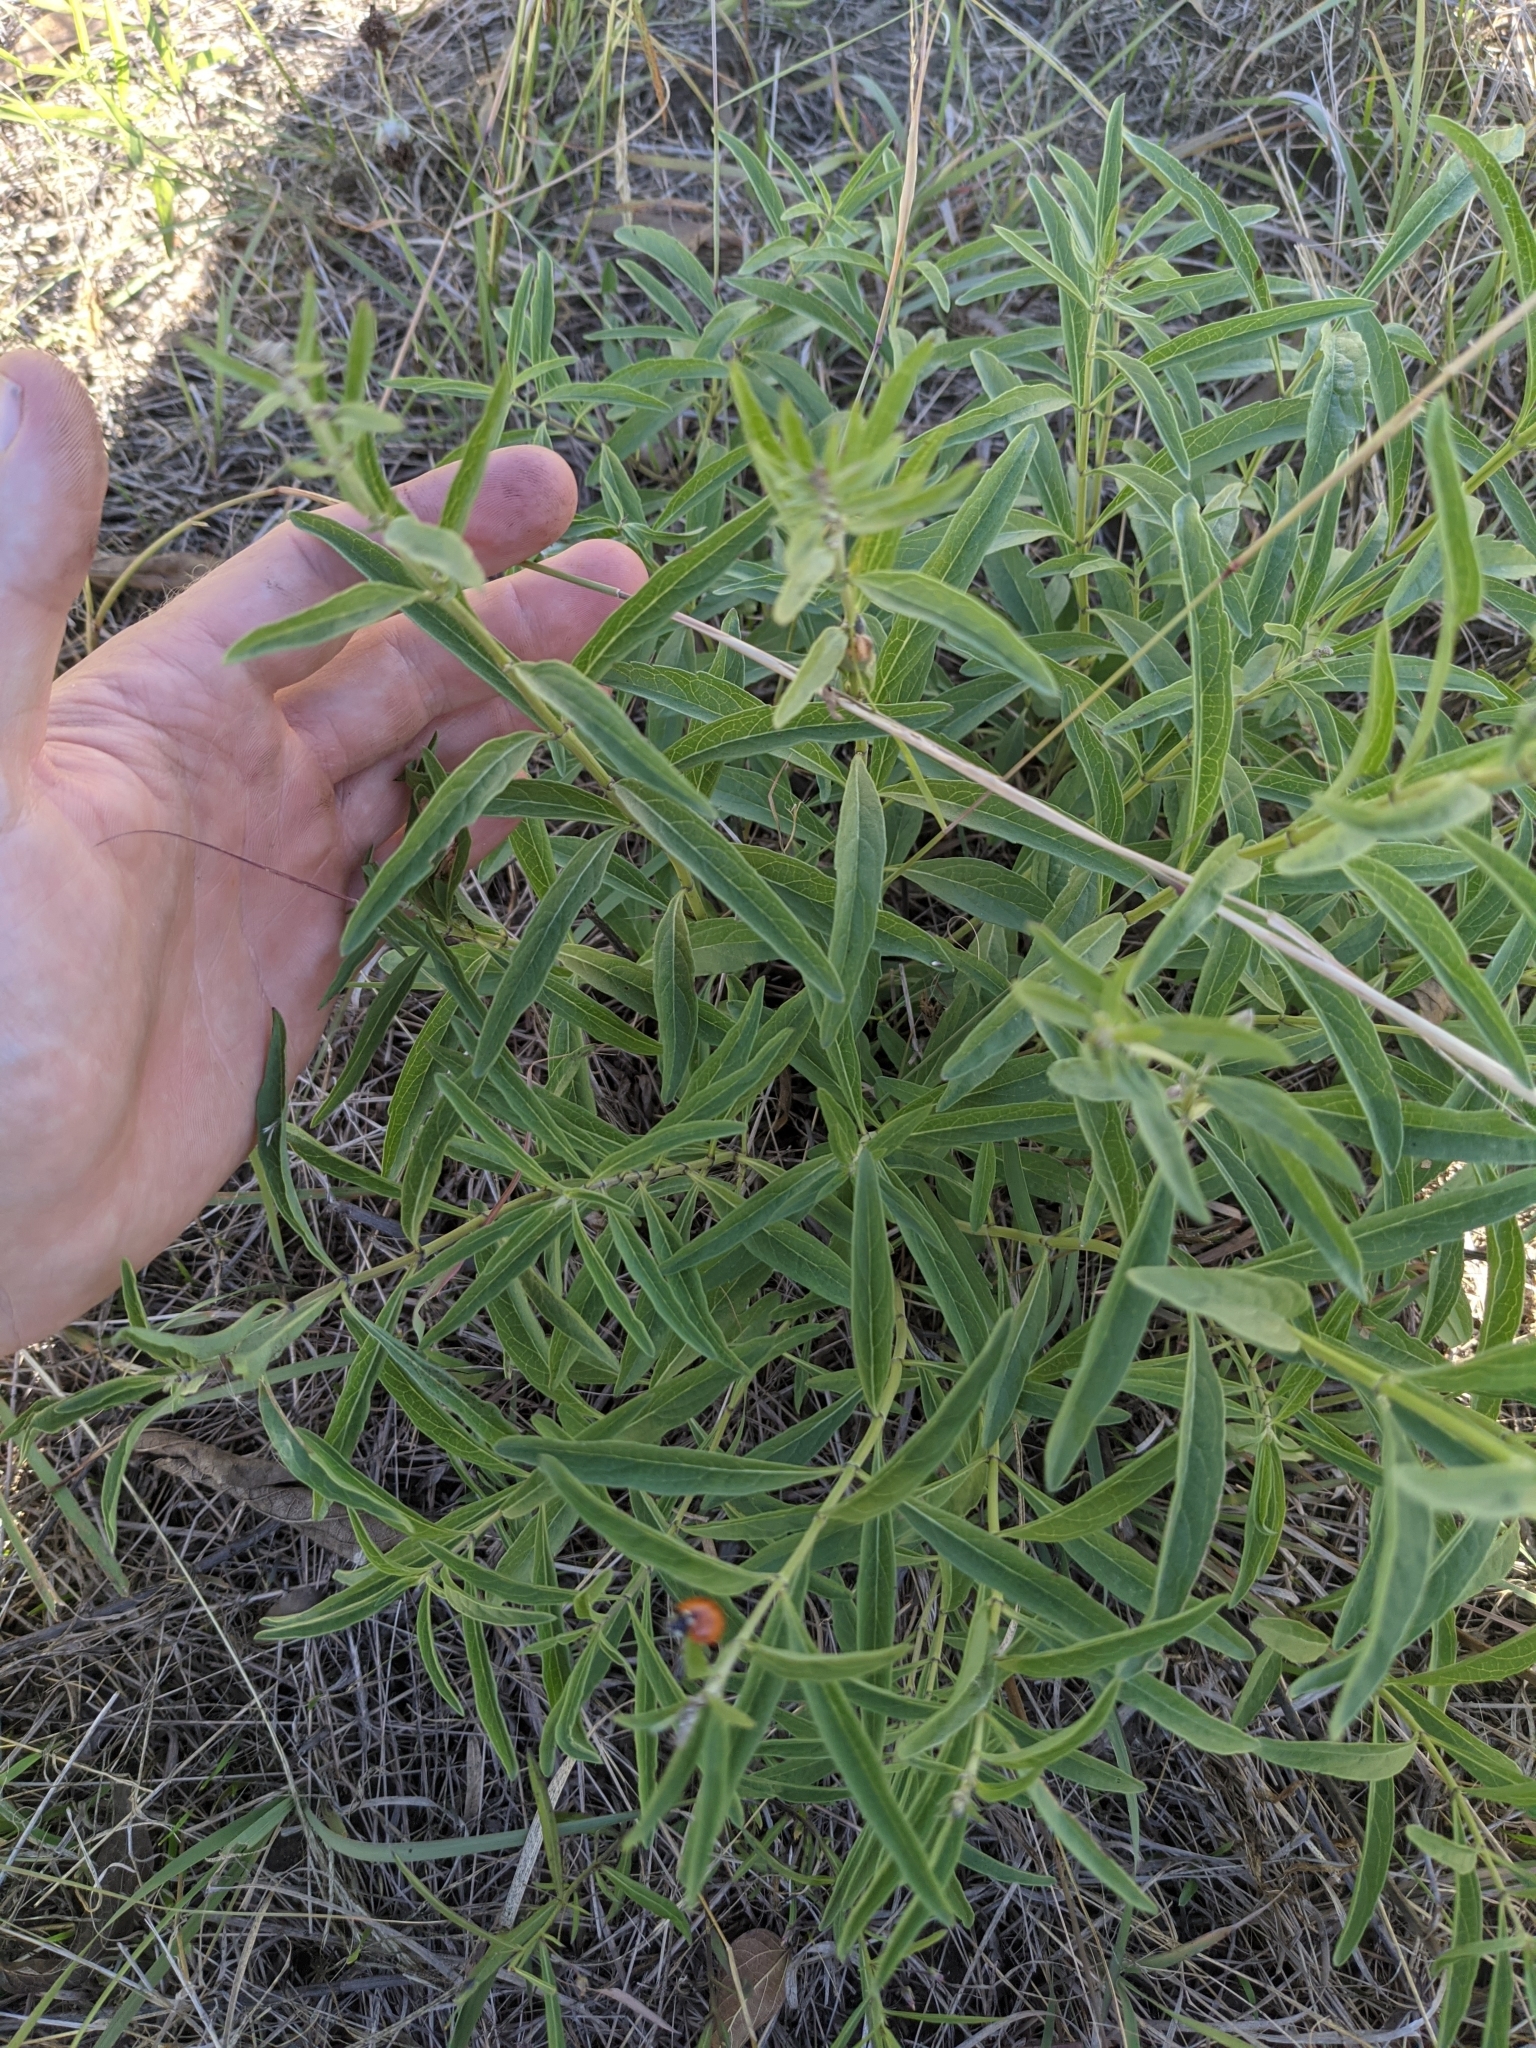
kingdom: Plantae
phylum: Tracheophyta
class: Magnoliopsida
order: Lamiales
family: Lamiaceae
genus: Salvia
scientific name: Salvia azurea
